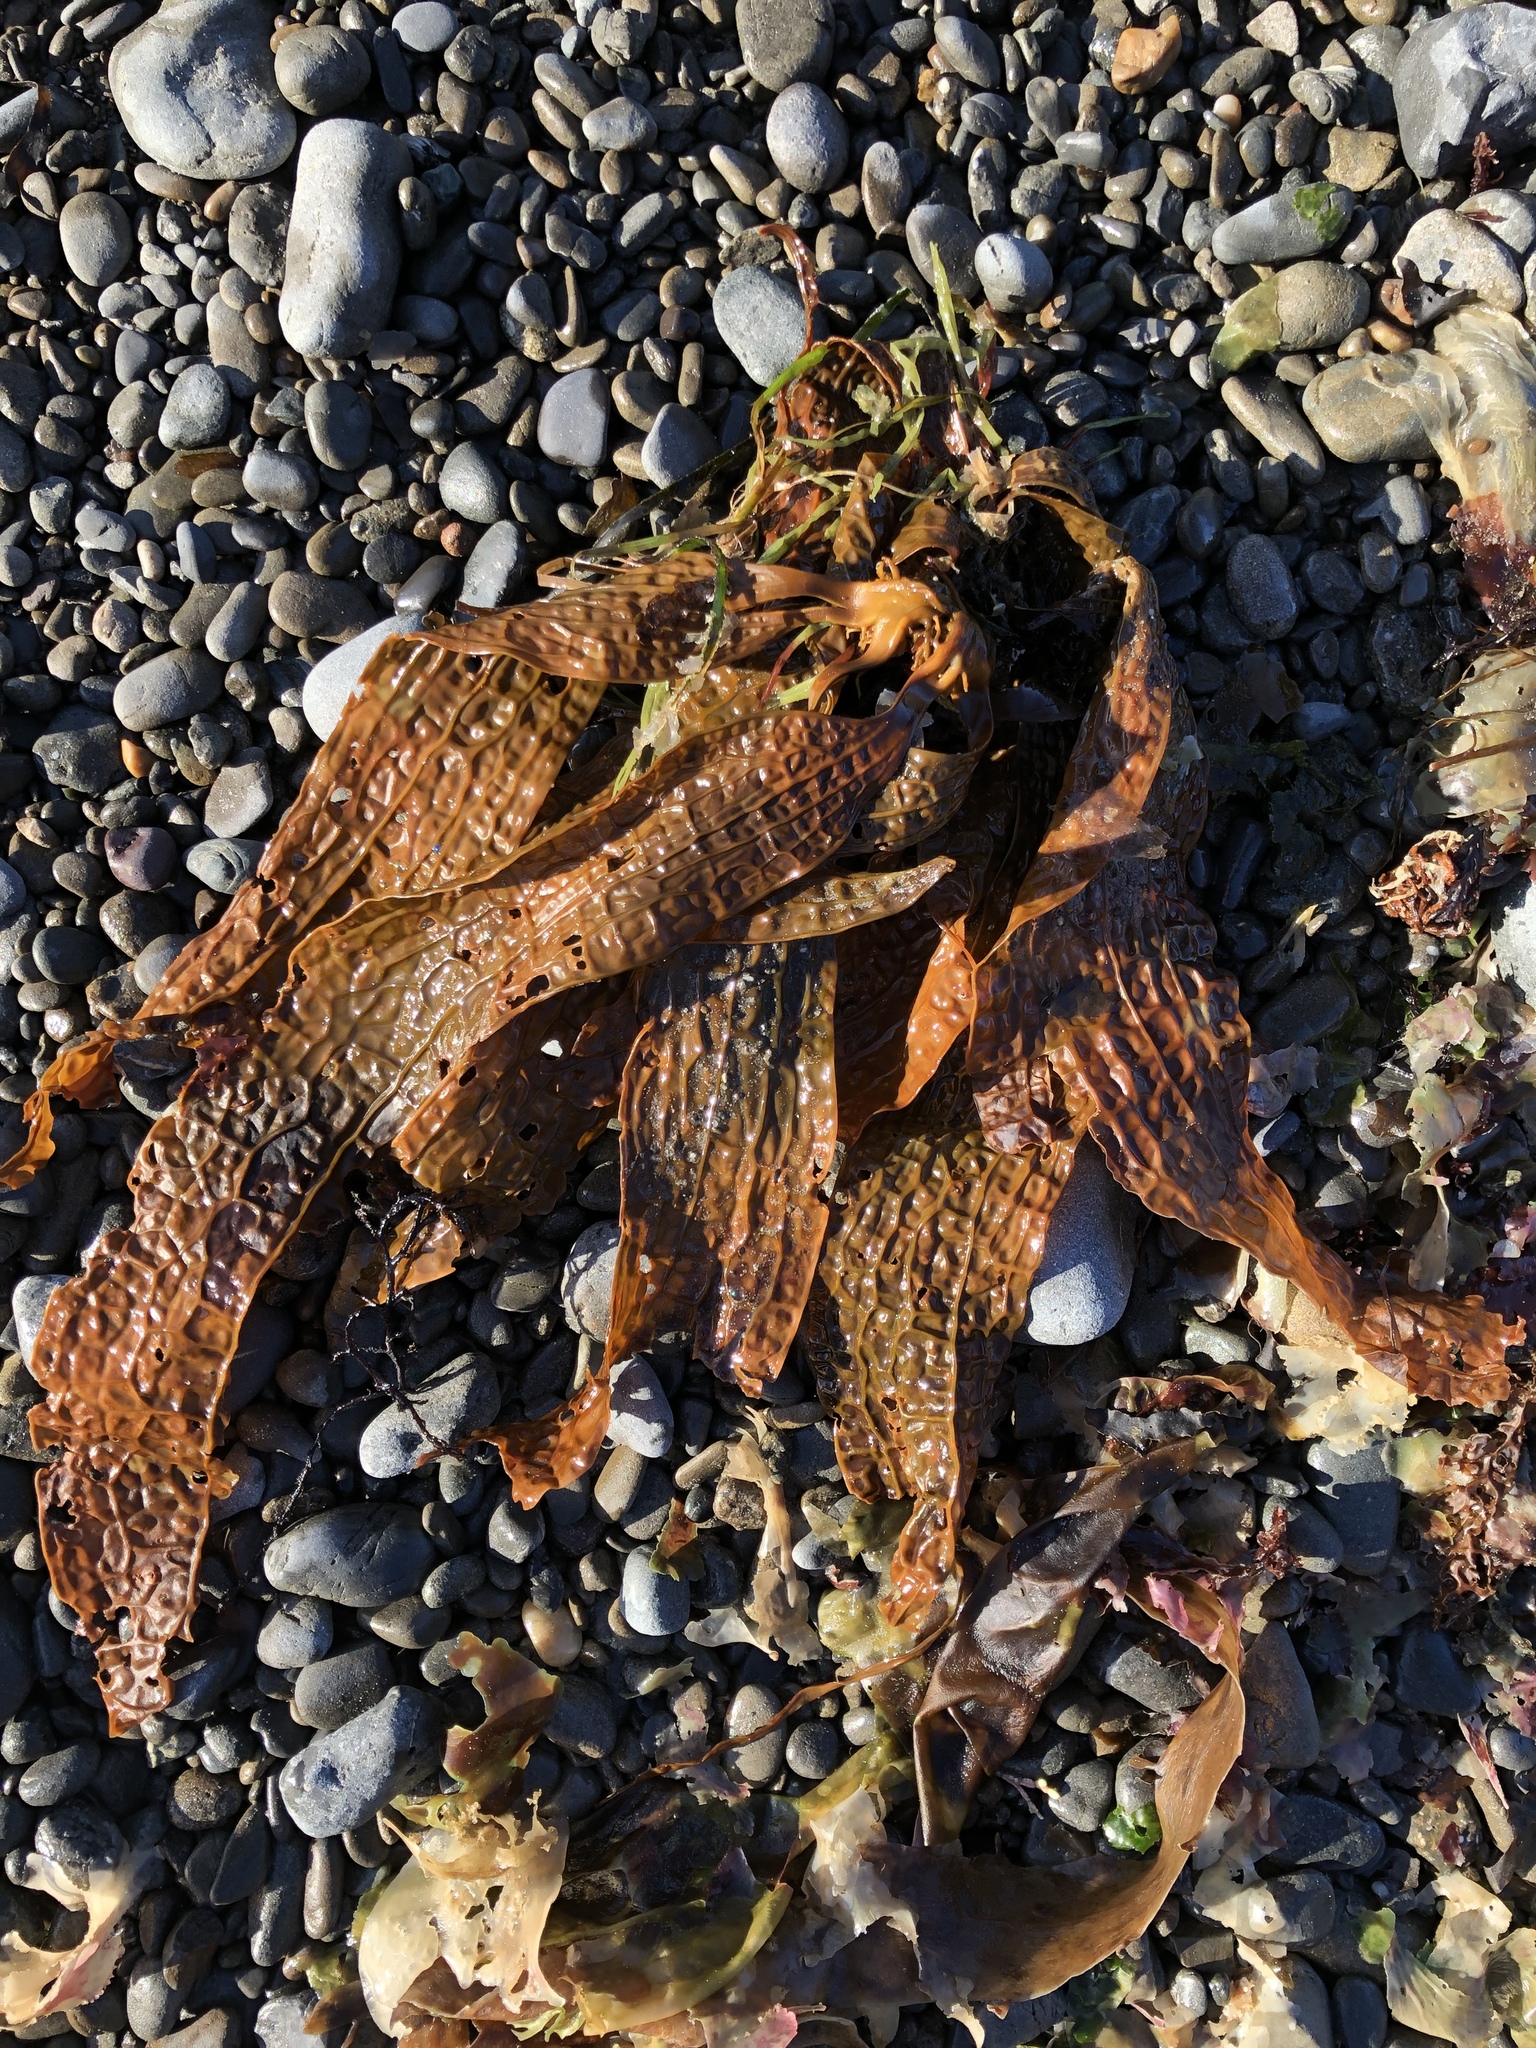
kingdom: Chromista
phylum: Ochrophyta
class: Phaeophyceae
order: Laminariales
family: Costariaceae
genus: Dictyoneurum
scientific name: Dictyoneurum californicum
